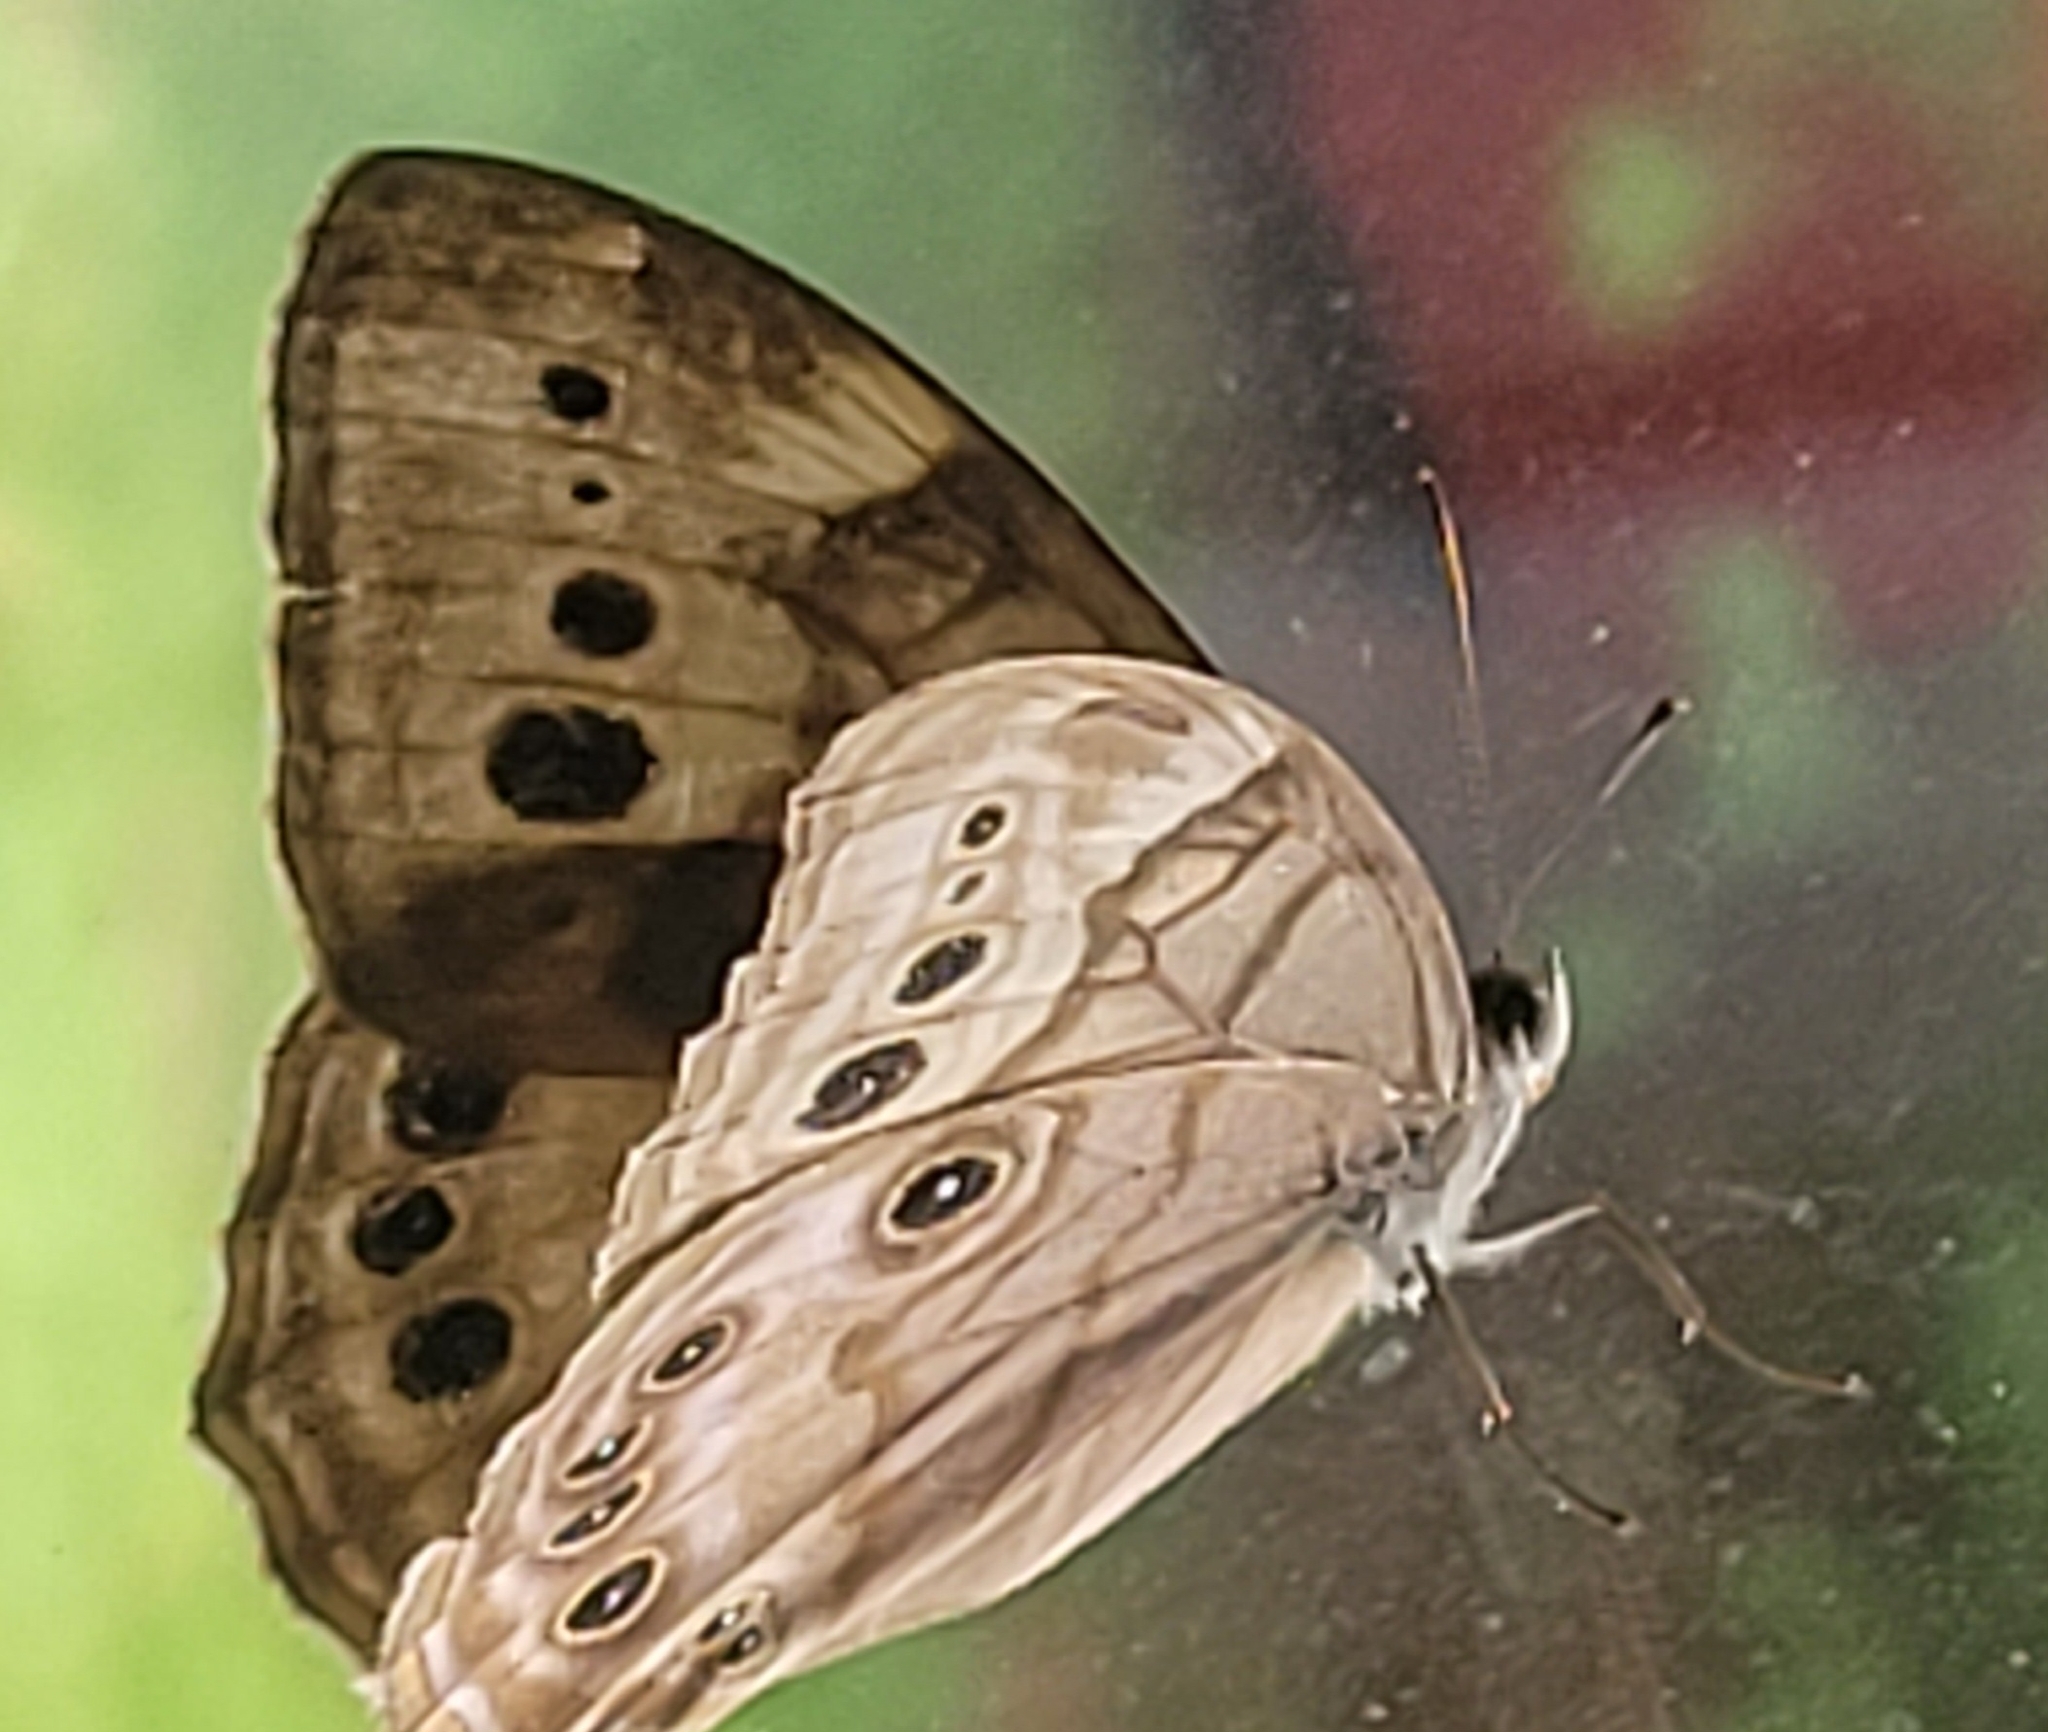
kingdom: Animalia
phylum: Arthropoda
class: Insecta
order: Lepidoptera
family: Nymphalidae
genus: Lethe
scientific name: Lethe anthedon
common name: Northern pearly-eye
